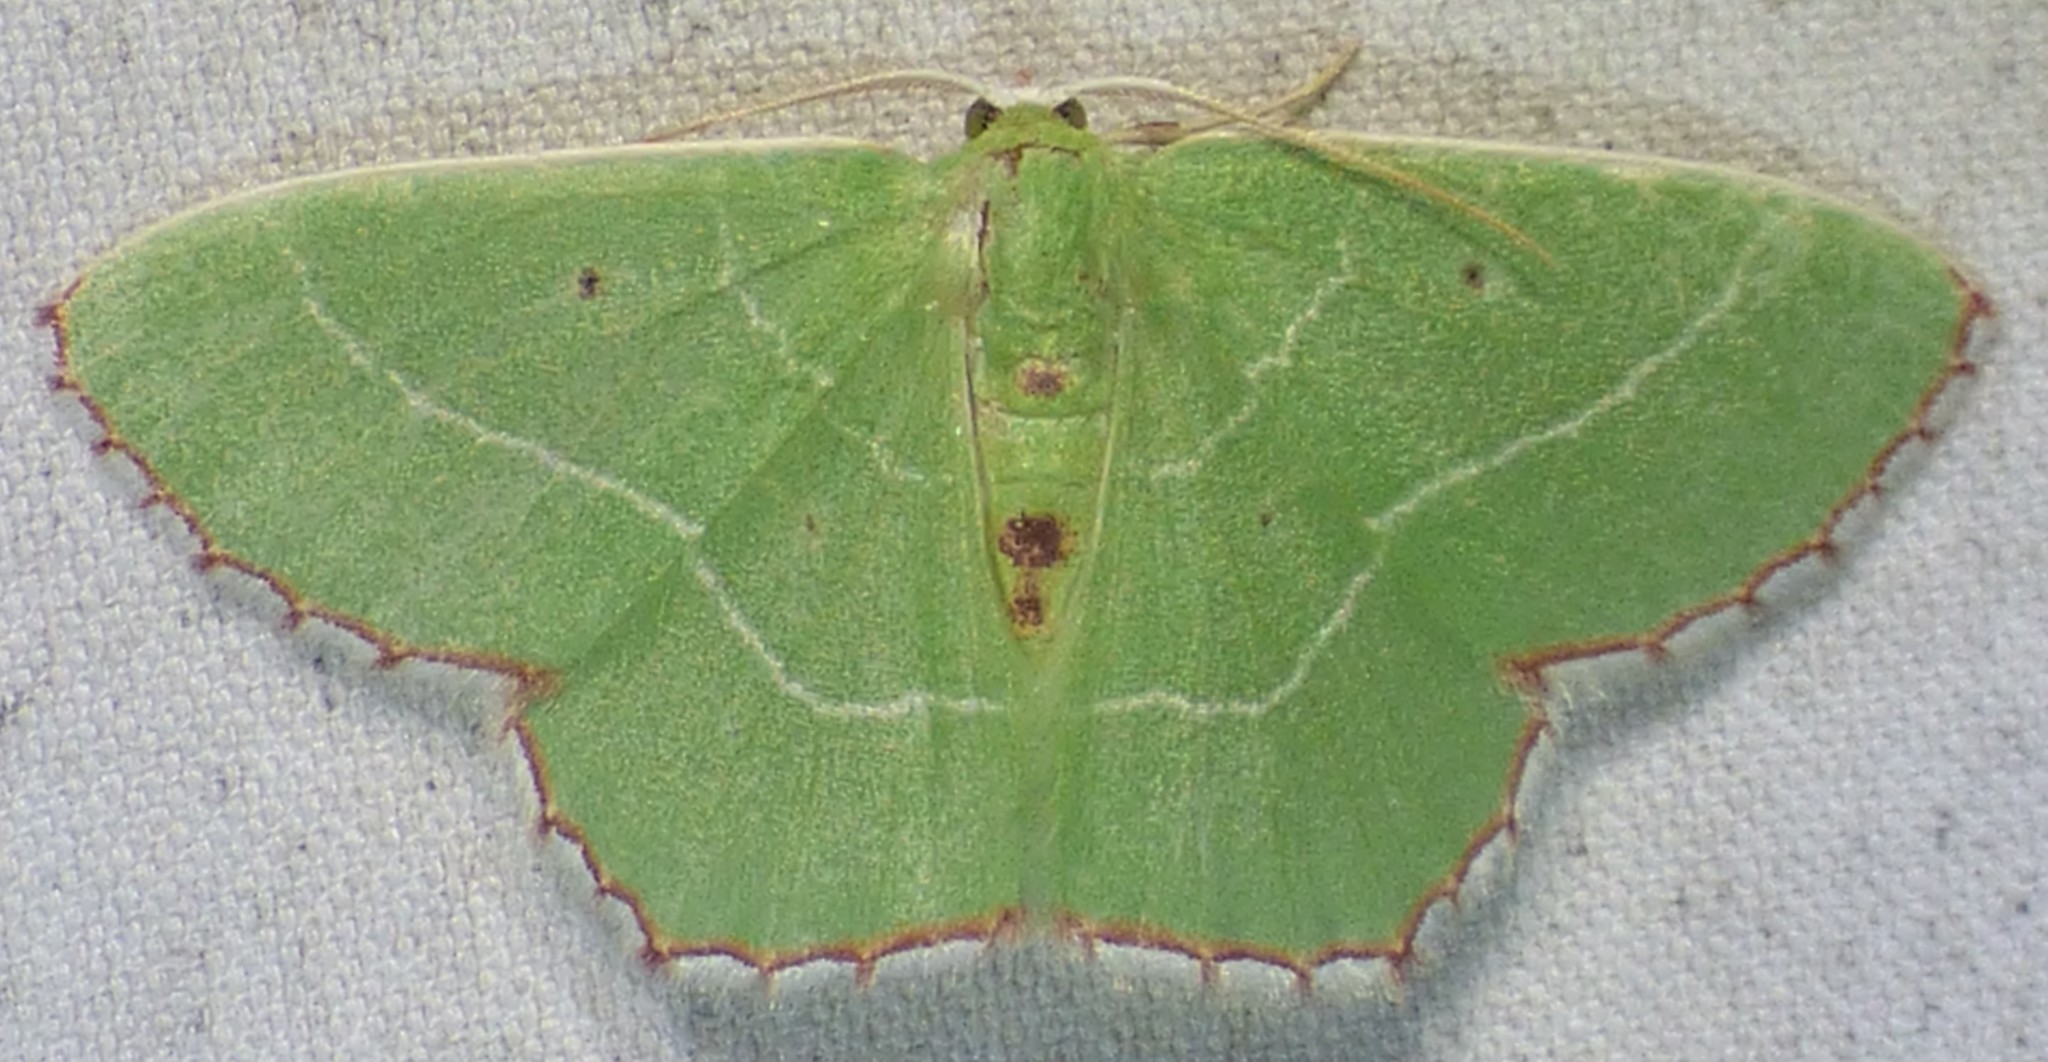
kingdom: Animalia
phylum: Arthropoda
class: Insecta
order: Lepidoptera
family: Geometridae
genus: Nemoria
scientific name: Nemoria saturiba
